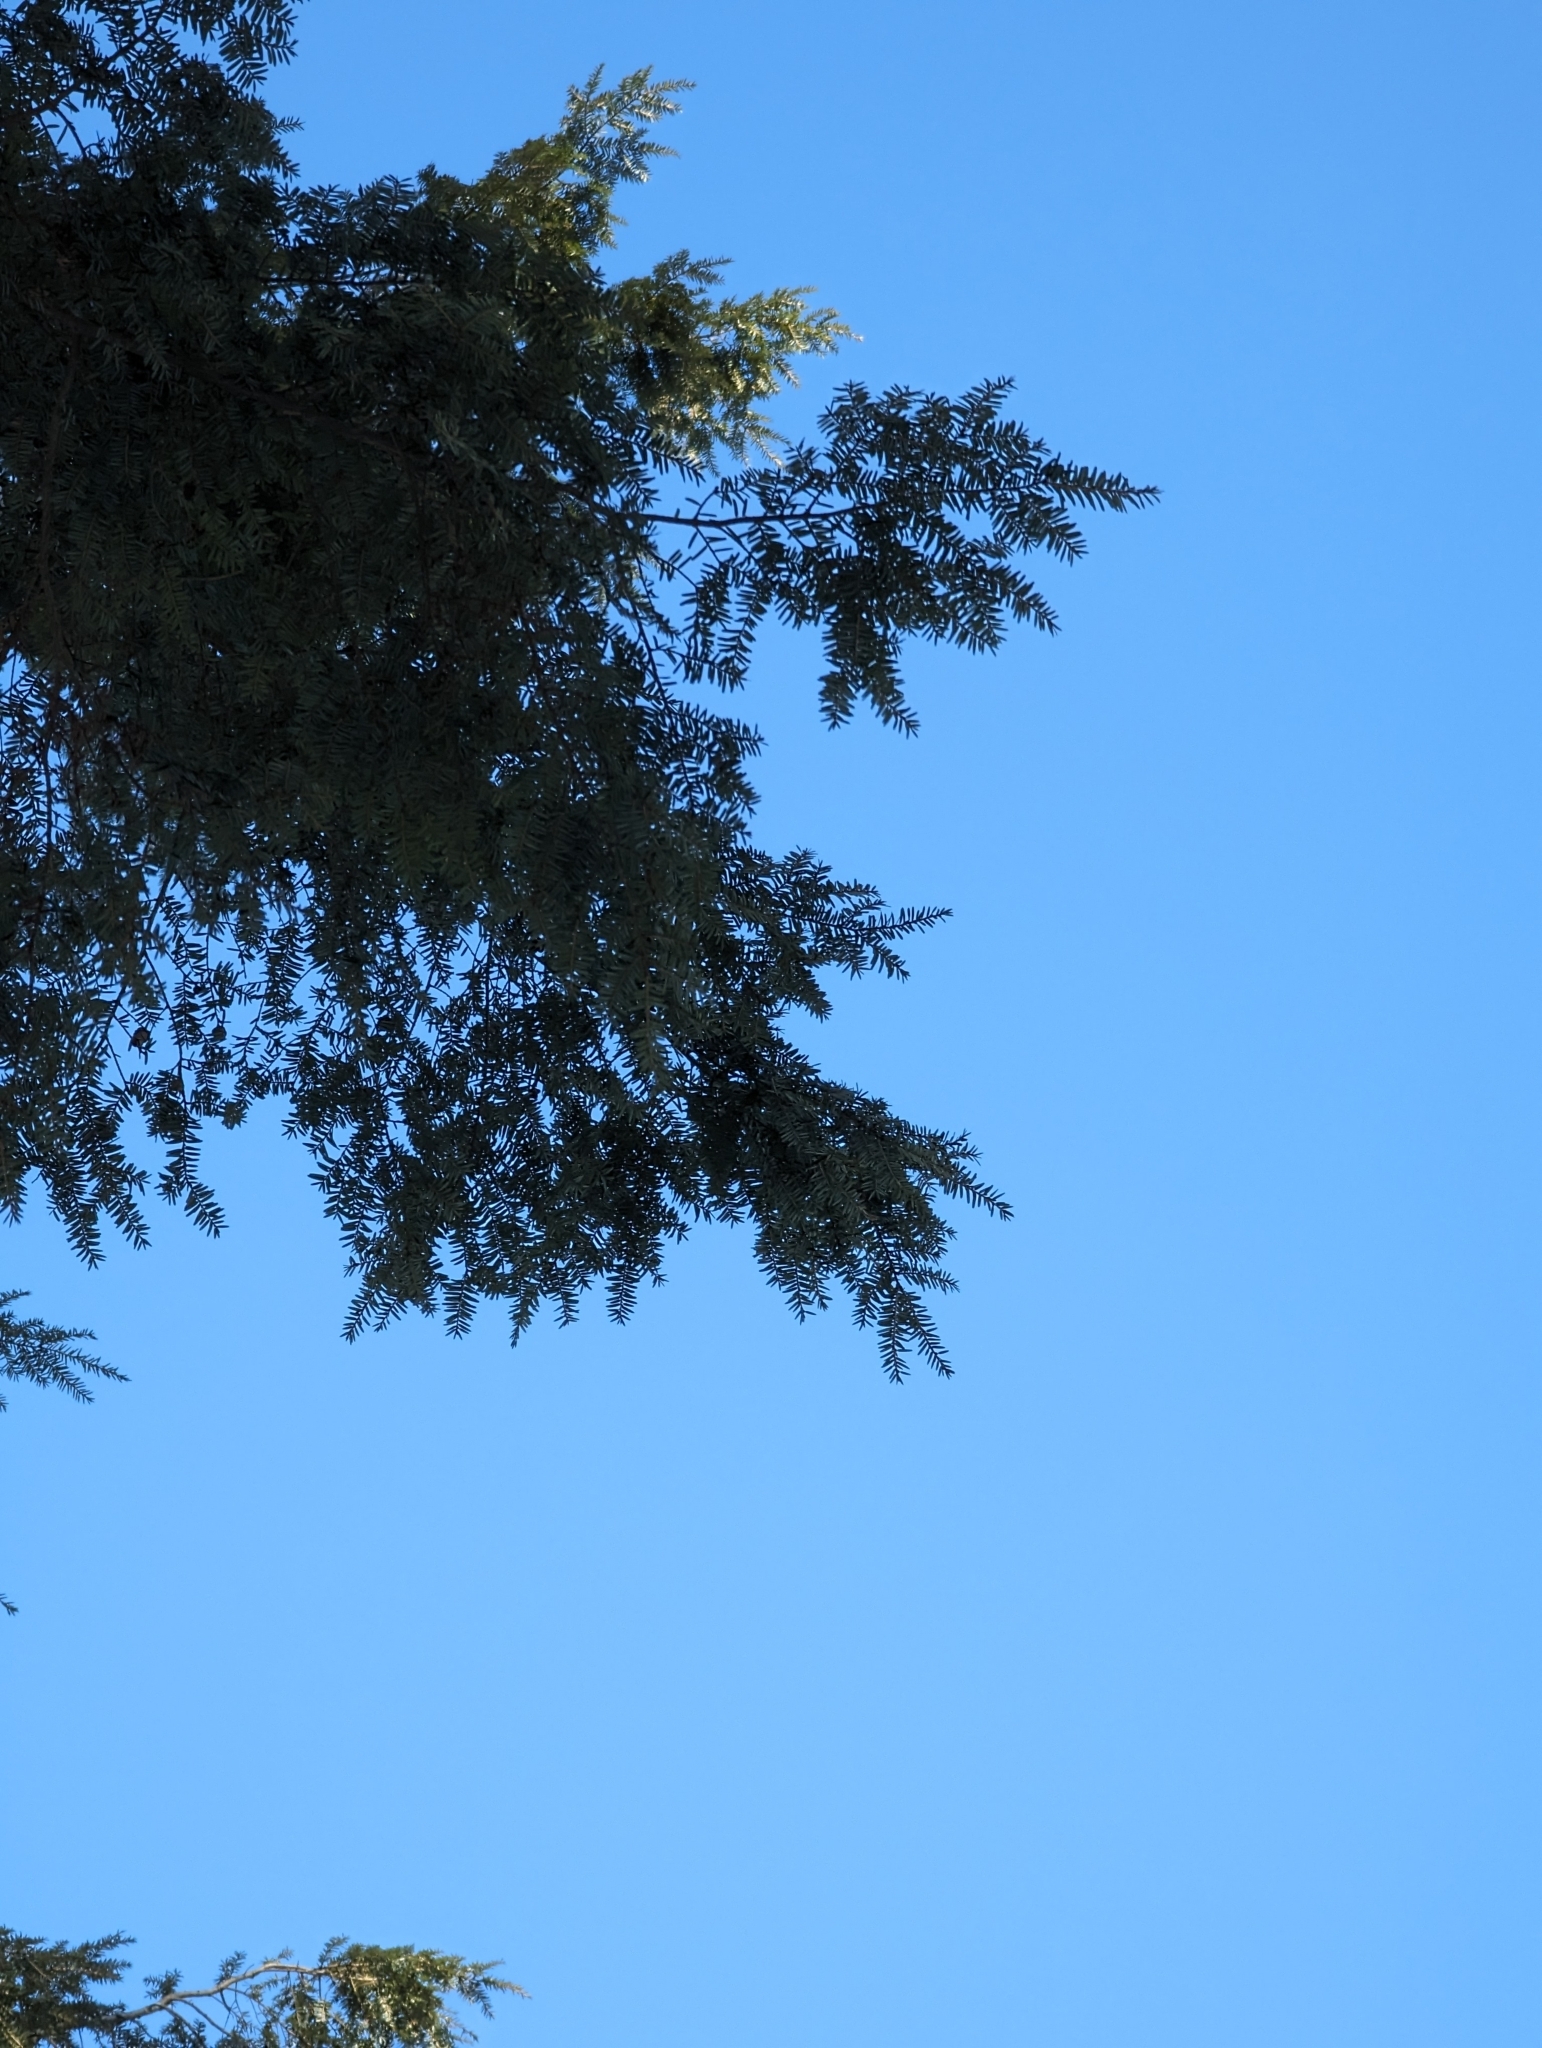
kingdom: Plantae
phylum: Tracheophyta
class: Pinopsida
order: Pinales
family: Pinaceae
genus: Tsuga
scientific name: Tsuga canadensis
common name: Eastern hemlock
